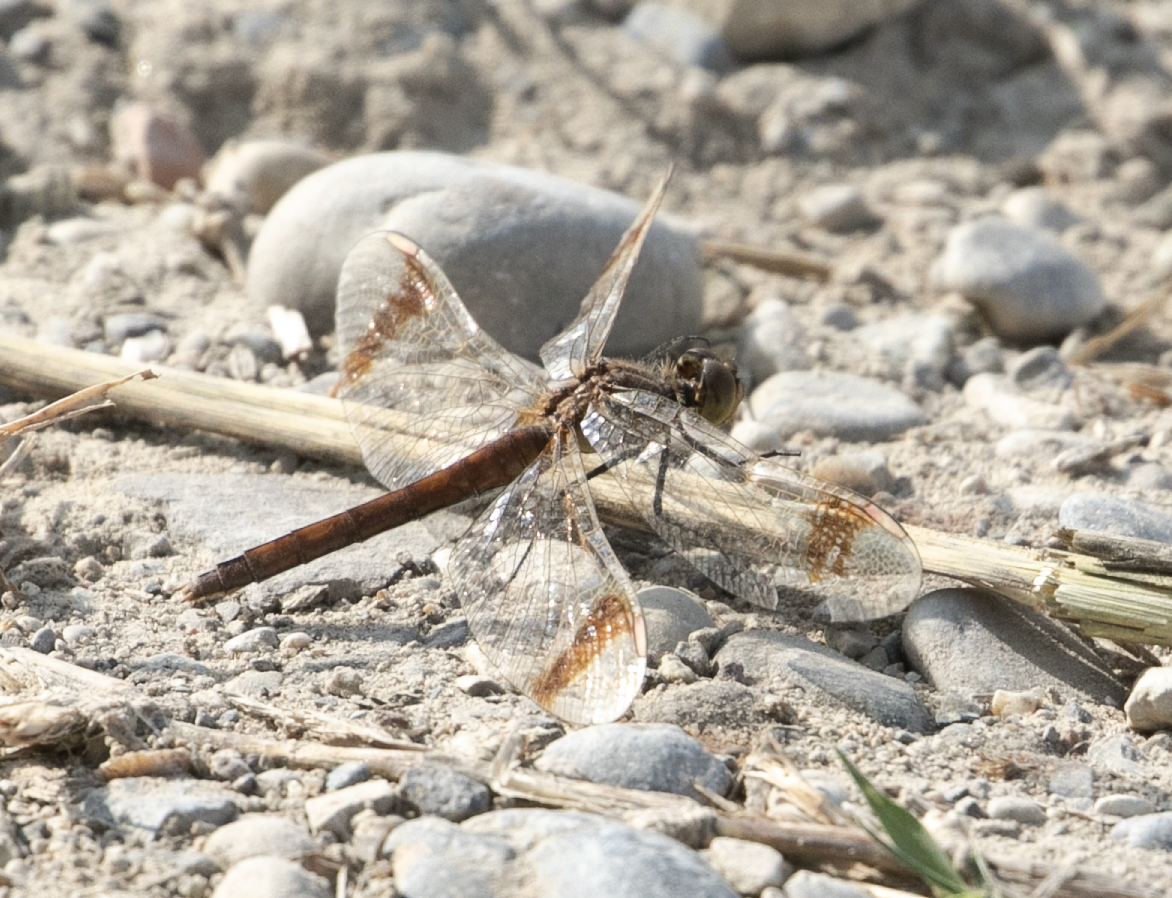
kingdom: Animalia
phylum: Arthropoda
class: Insecta
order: Odonata
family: Libellulidae
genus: Sympetrum
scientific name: Sympetrum pedemontanum
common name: Banded darter
